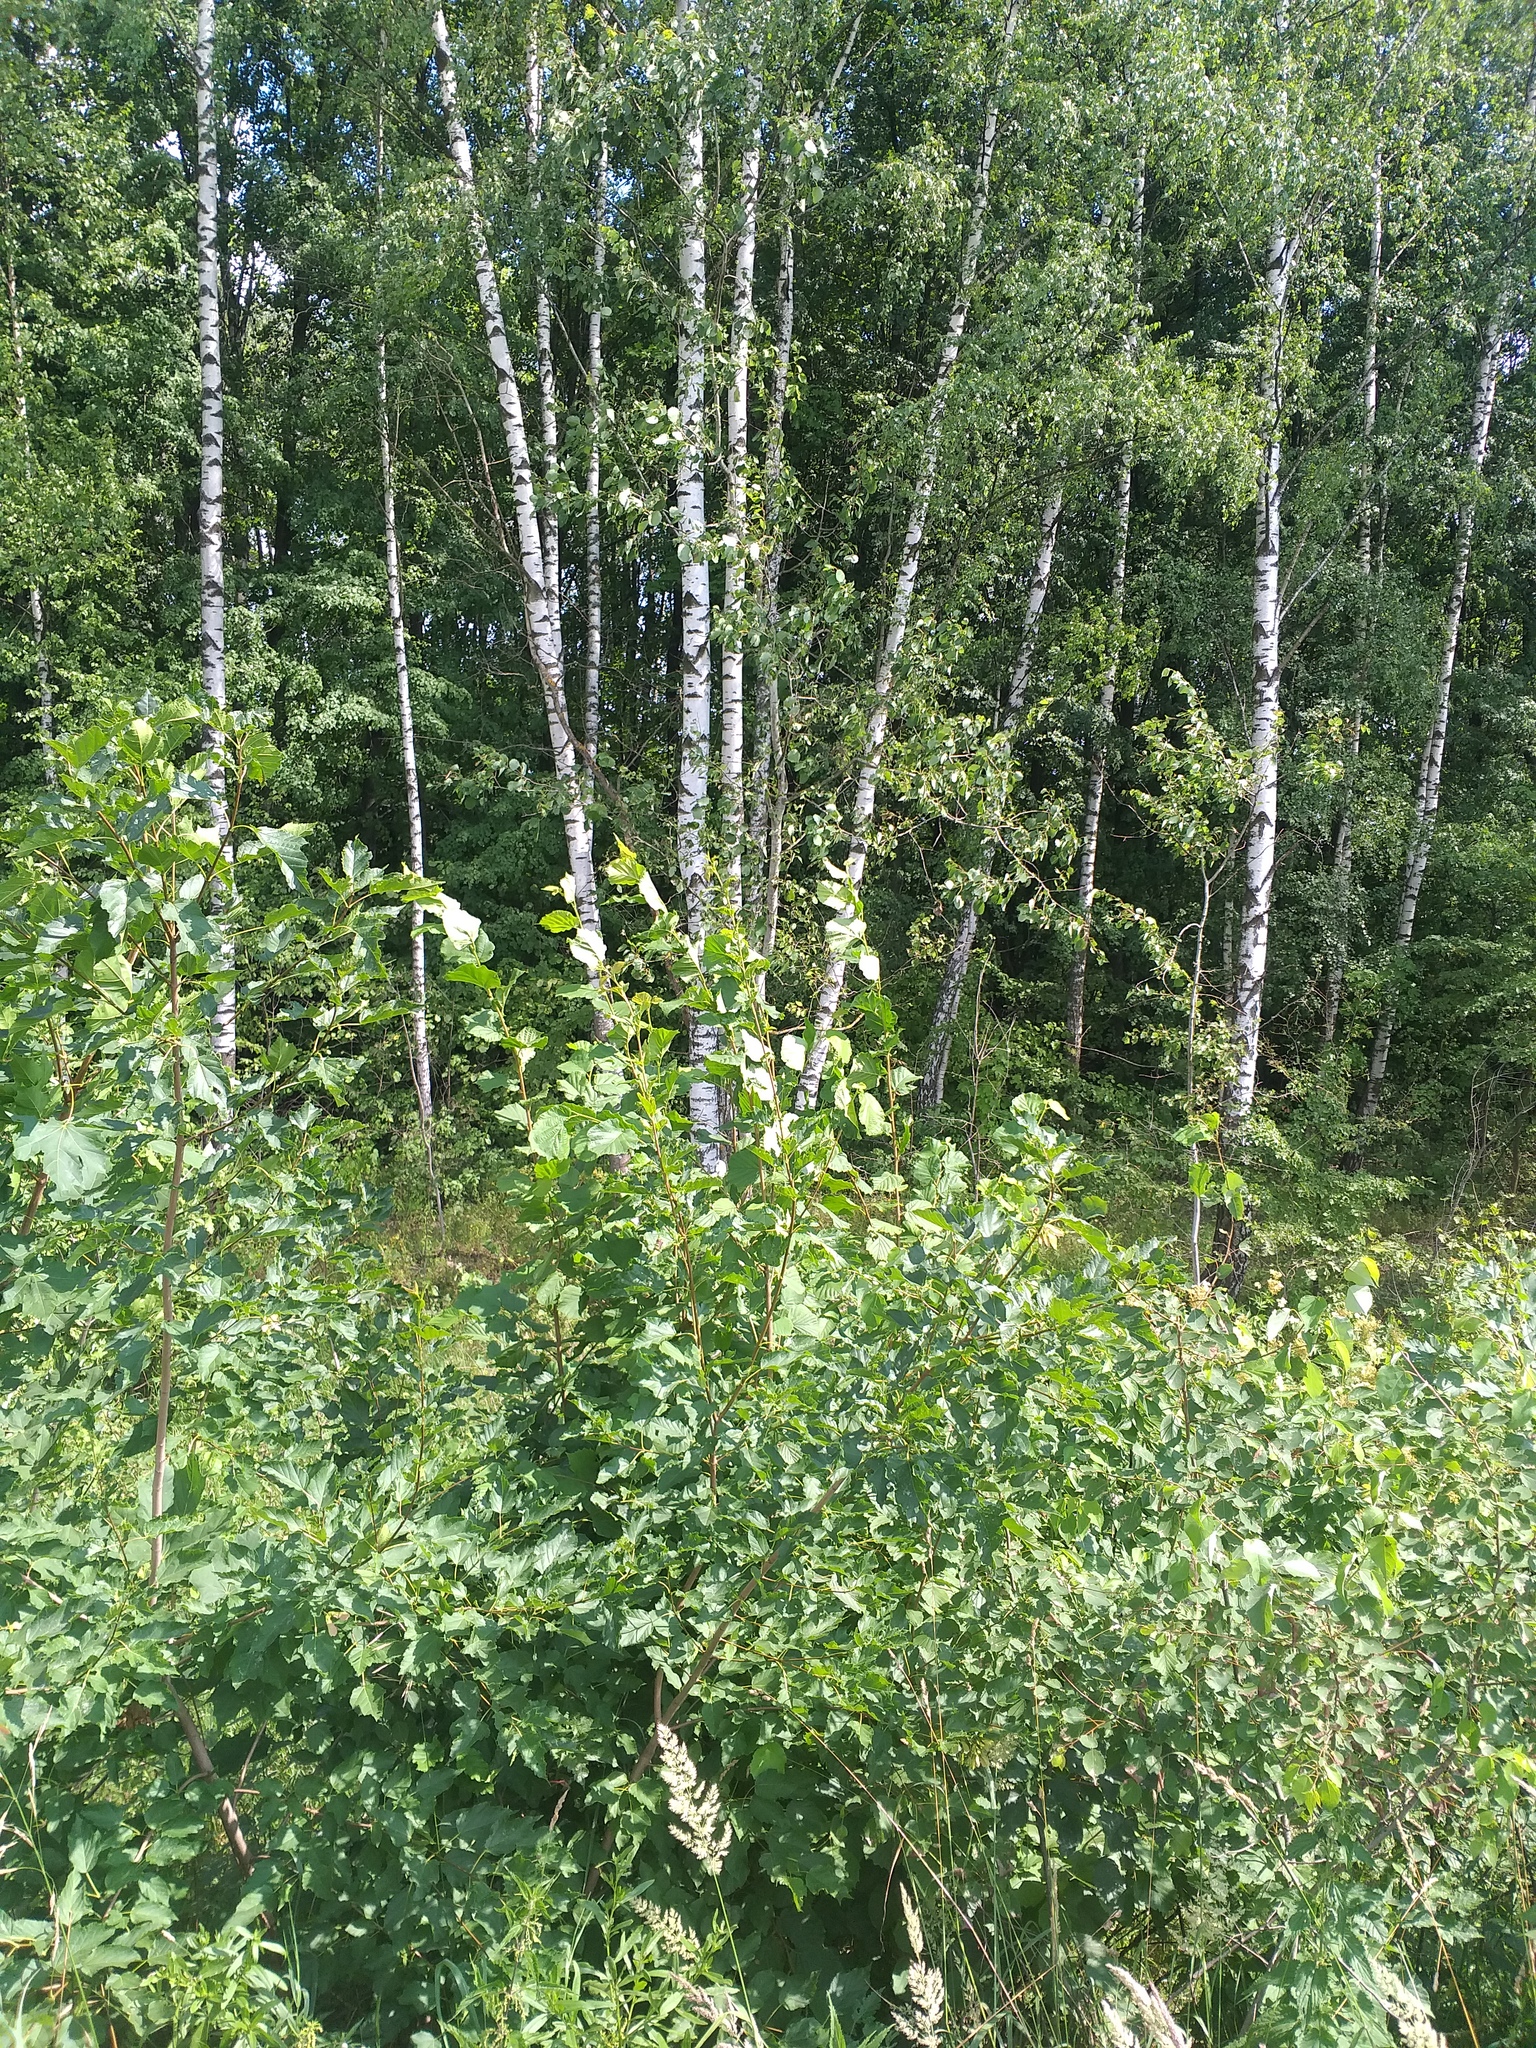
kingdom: Plantae
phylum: Tracheophyta
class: Magnoliopsida
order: Fagales
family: Betulaceae
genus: Corylus
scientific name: Corylus avellana
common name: European hazel
